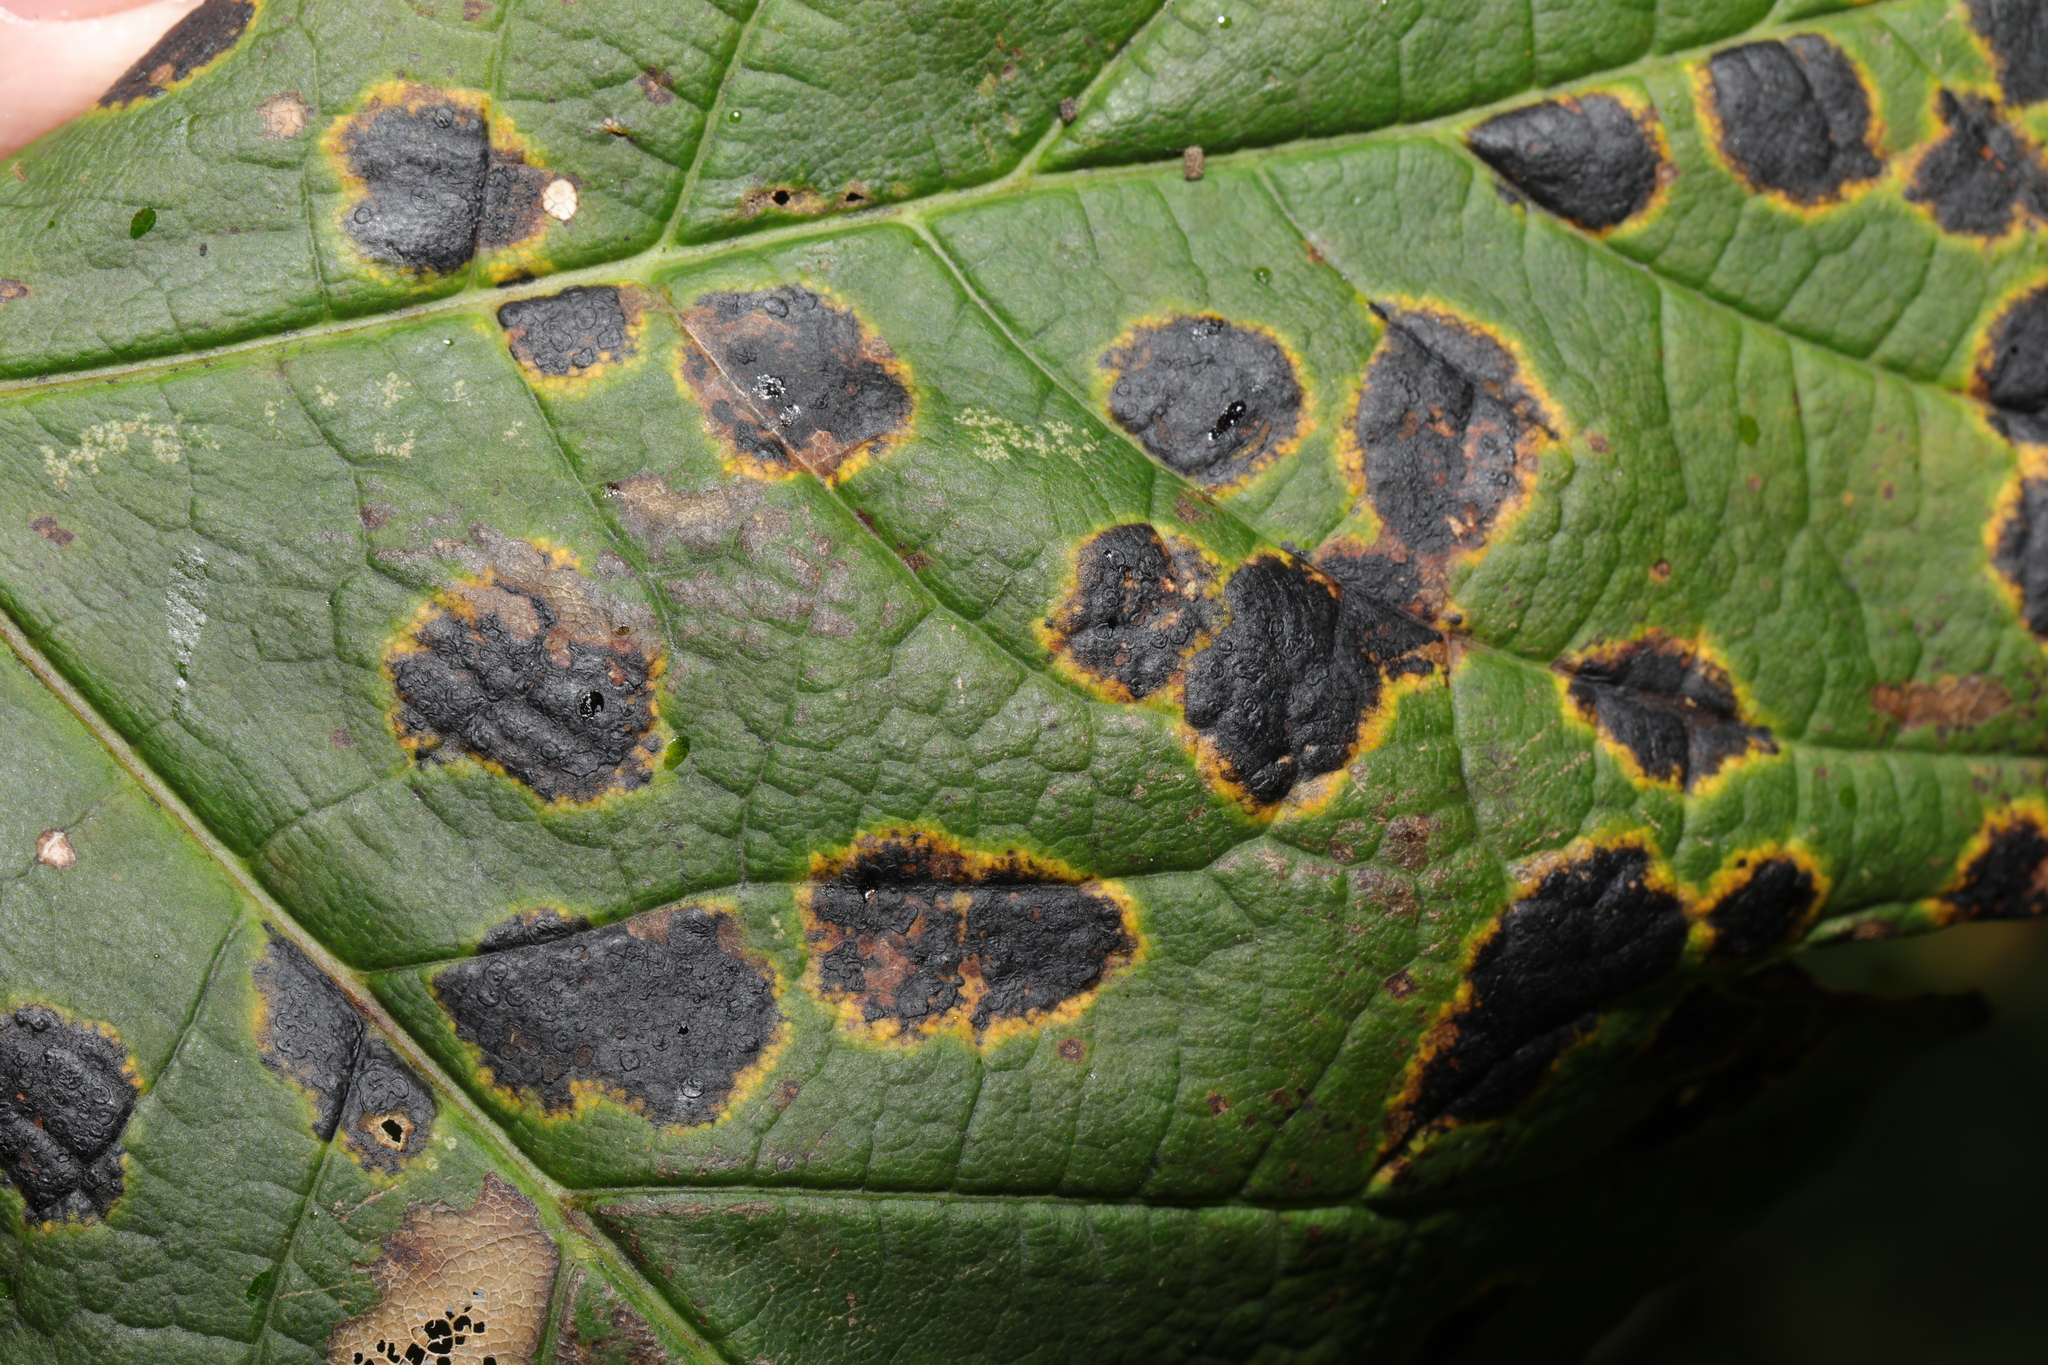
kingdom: Fungi
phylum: Ascomycota
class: Leotiomycetes
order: Rhytismatales
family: Rhytismataceae
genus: Rhytisma
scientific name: Rhytisma acerinum
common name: European tar spot
